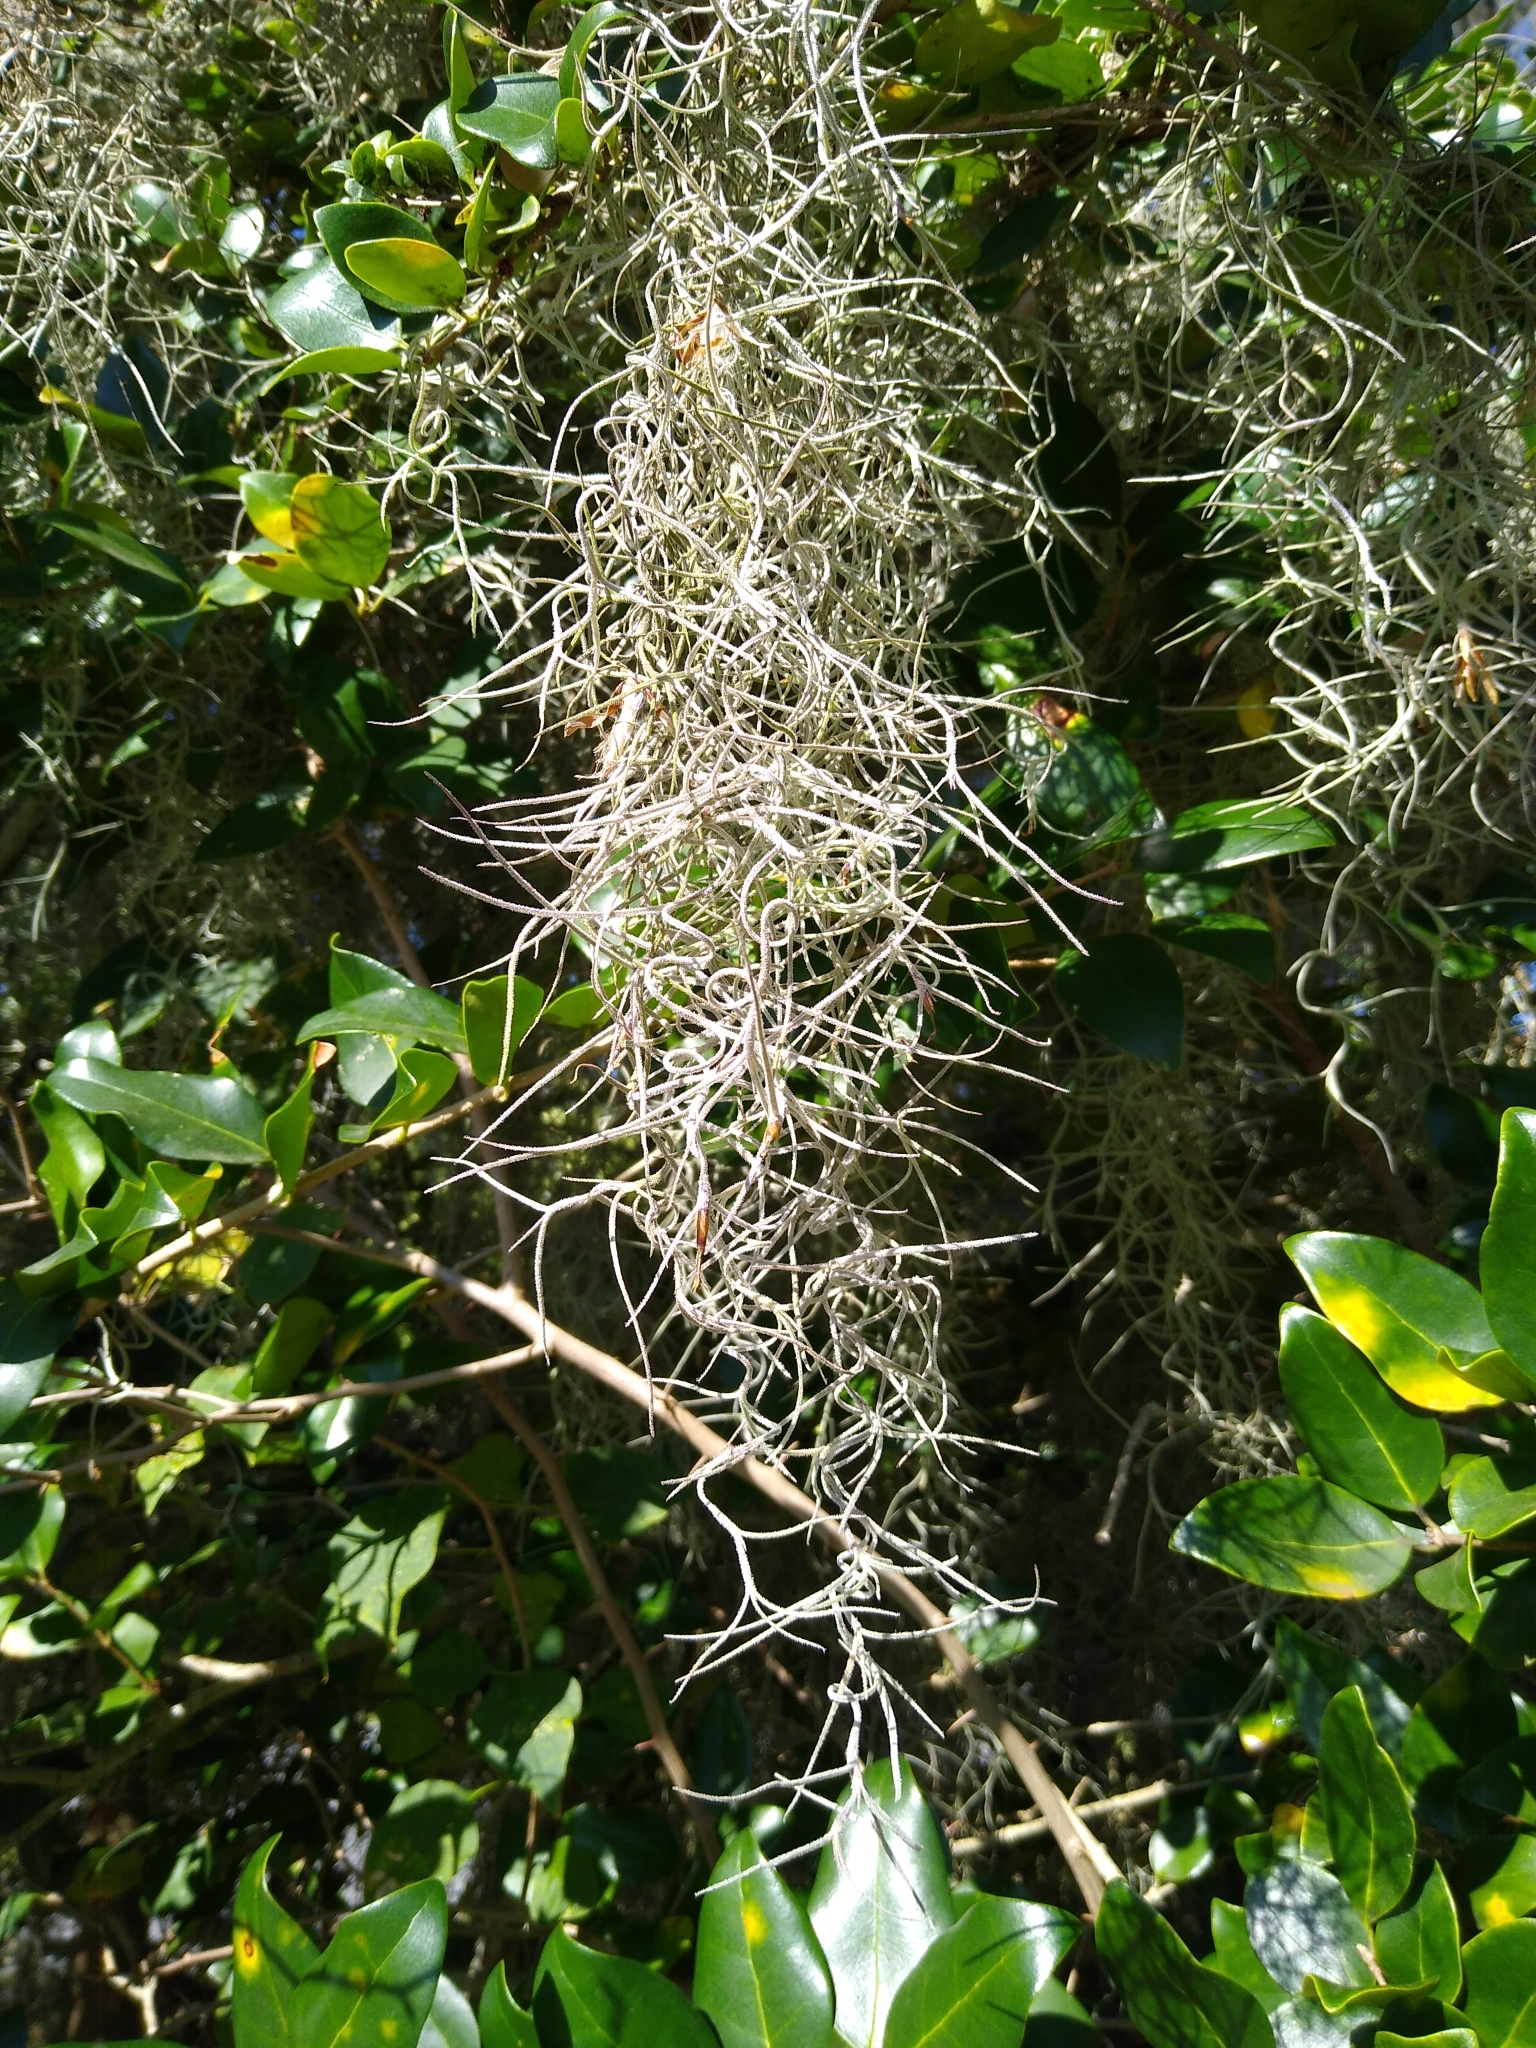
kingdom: Plantae
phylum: Tracheophyta
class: Liliopsida
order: Poales
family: Bromeliaceae
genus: Tillandsia
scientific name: Tillandsia usneoides
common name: Spanish moss
